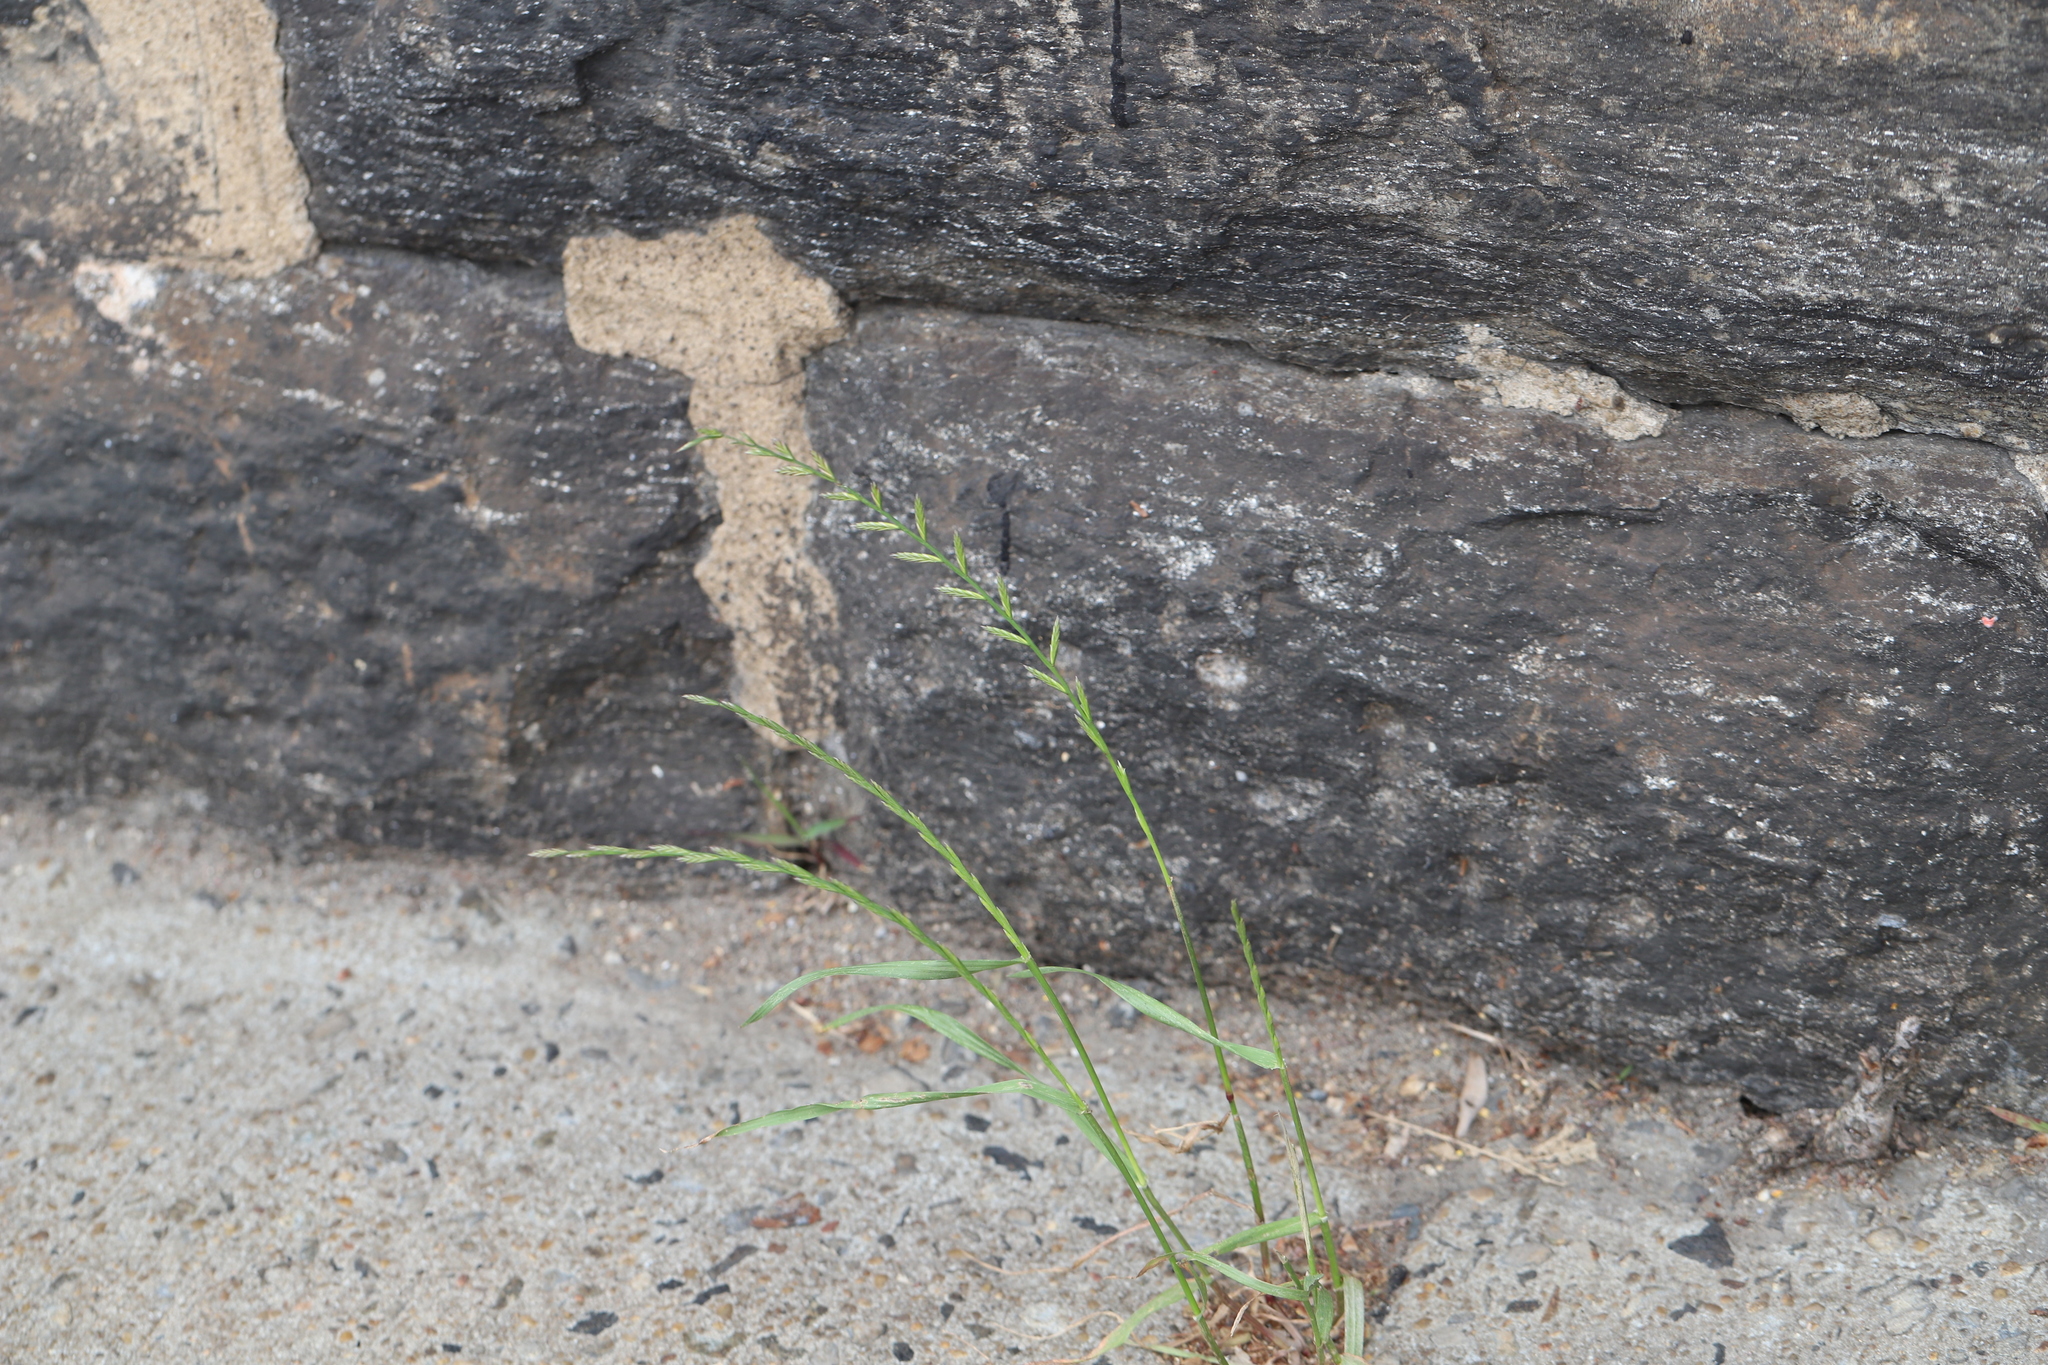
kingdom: Plantae
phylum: Tracheophyta
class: Liliopsida
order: Poales
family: Poaceae
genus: Lolium
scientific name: Lolium perenne
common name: Perennial ryegrass
